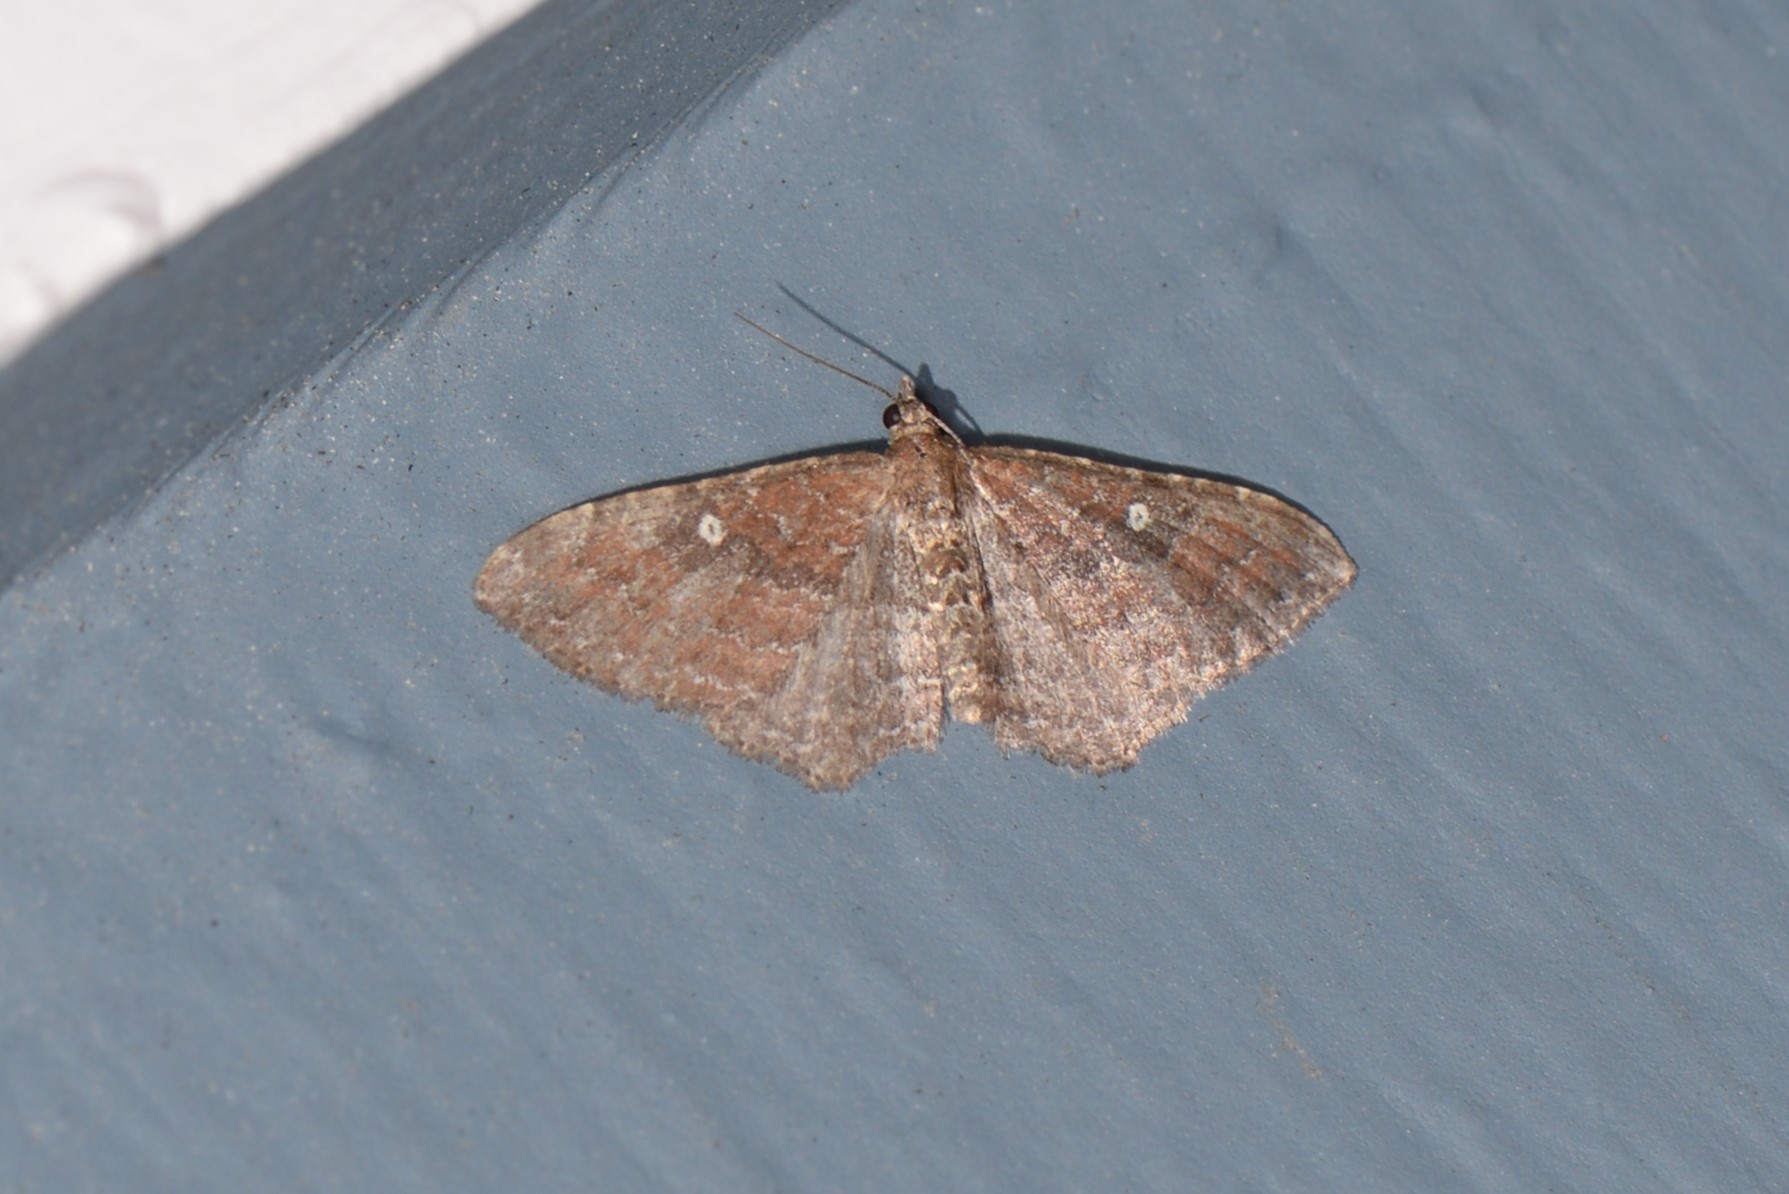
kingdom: Animalia
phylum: Arthropoda
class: Insecta
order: Lepidoptera
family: Geometridae
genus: Orthonama
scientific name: Orthonama obstipata
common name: The gem
